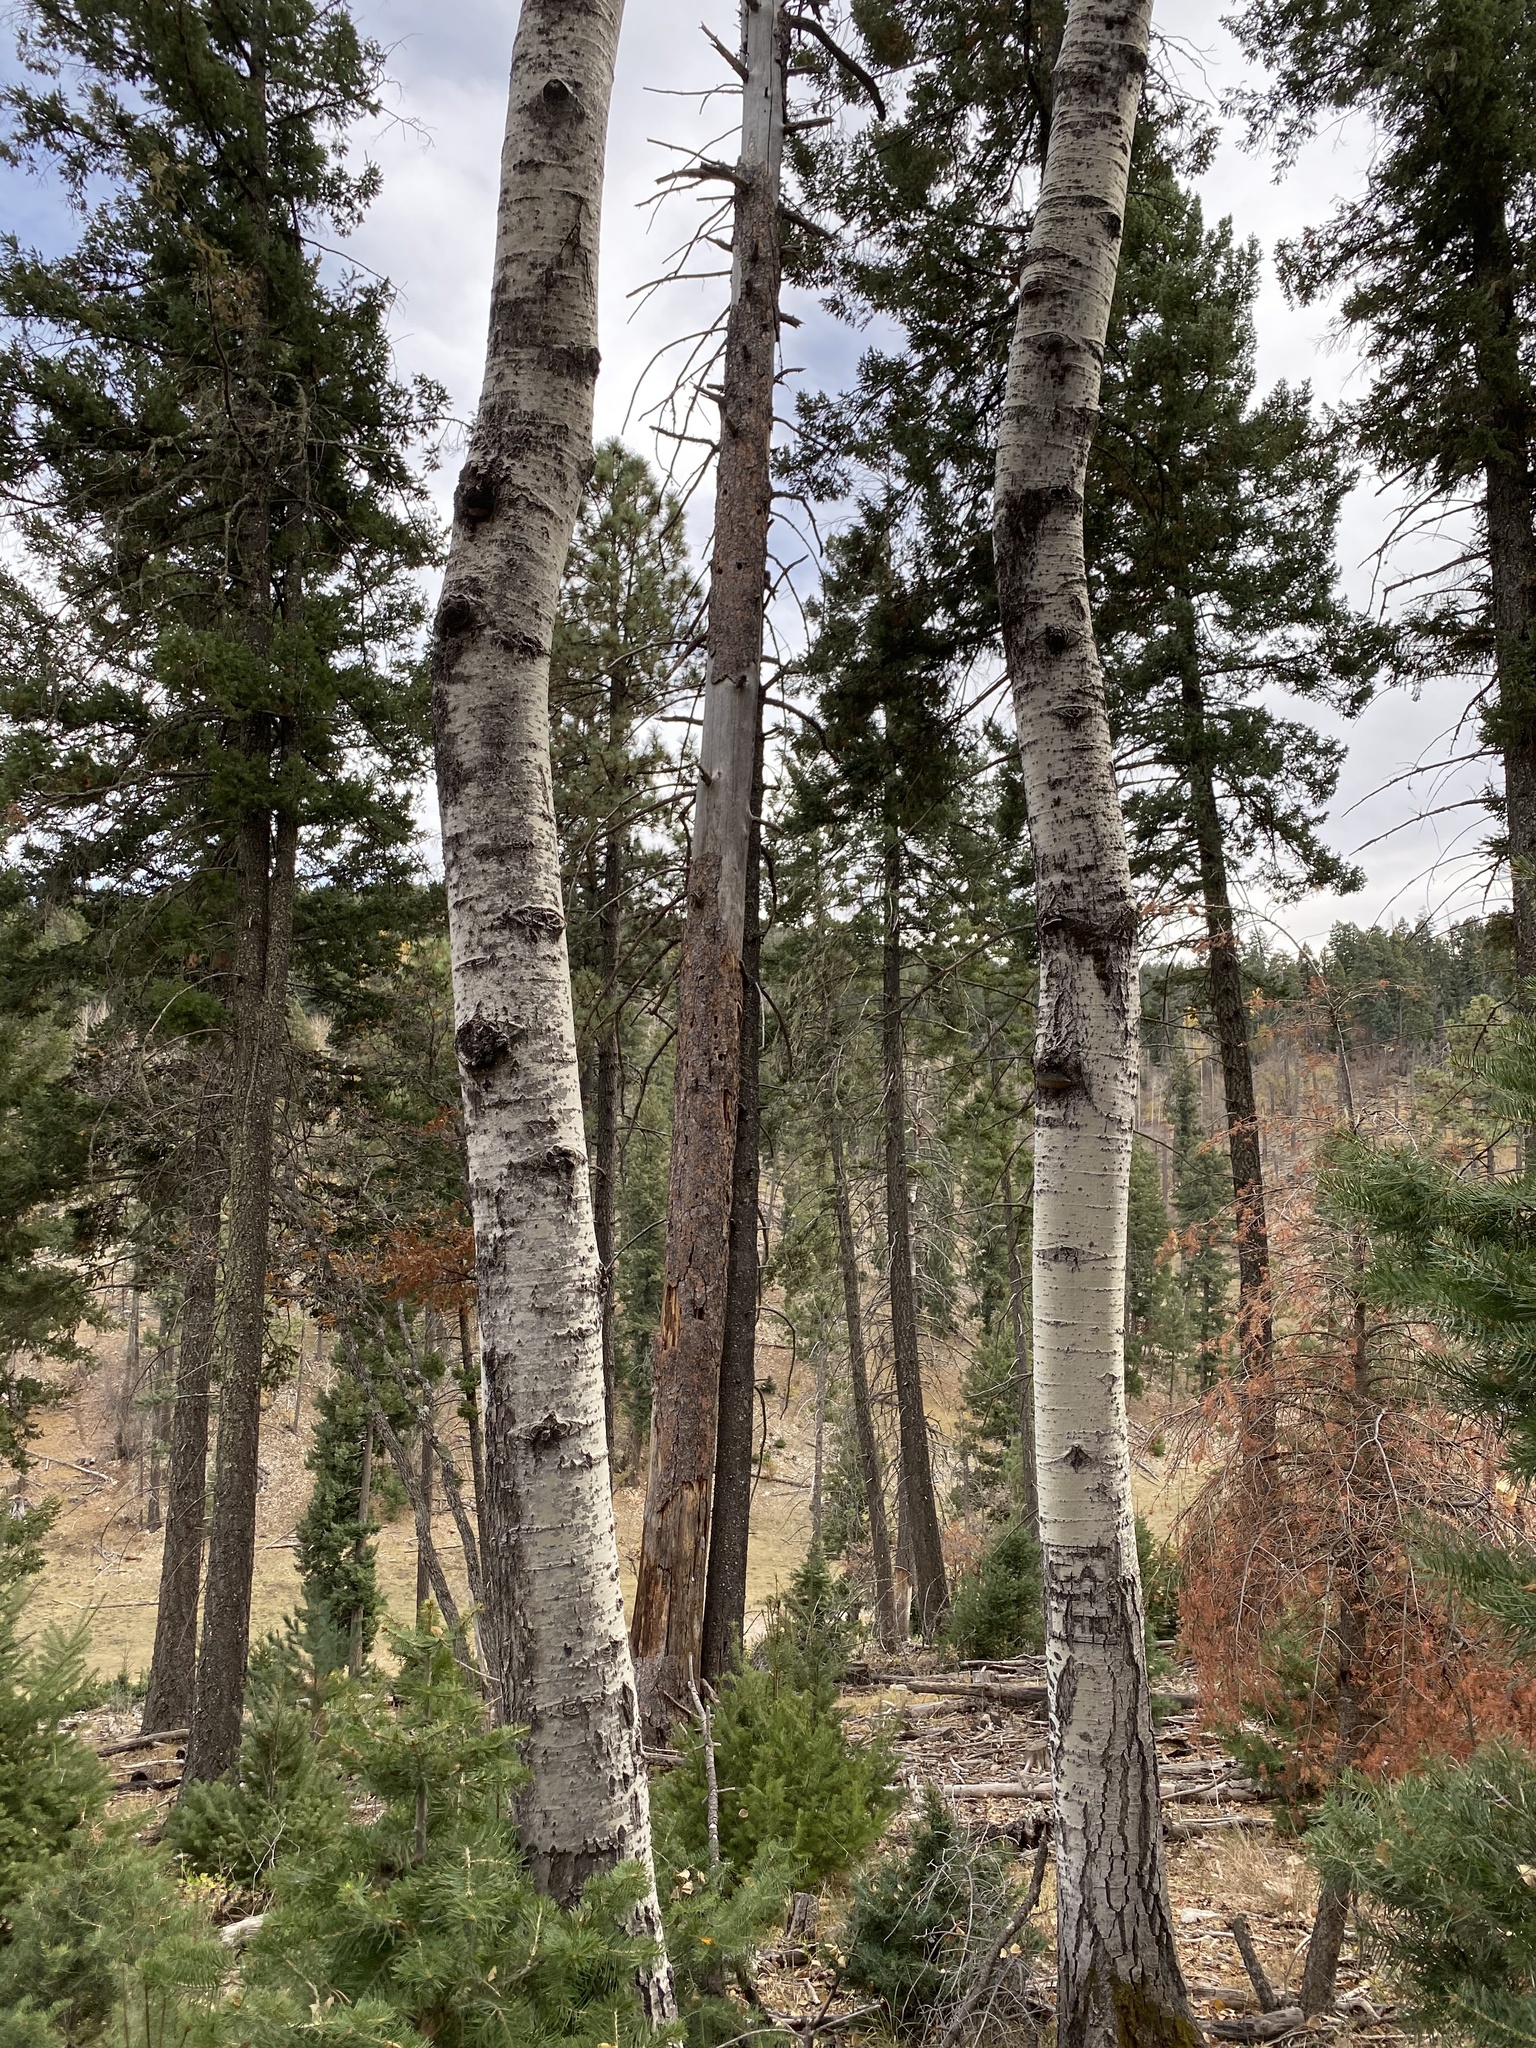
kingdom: Plantae
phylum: Tracheophyta
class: Magnoliopsida
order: Malpighiales
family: Salicaceae
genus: Populus
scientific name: Populus tremuloides
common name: Quaking aspen
